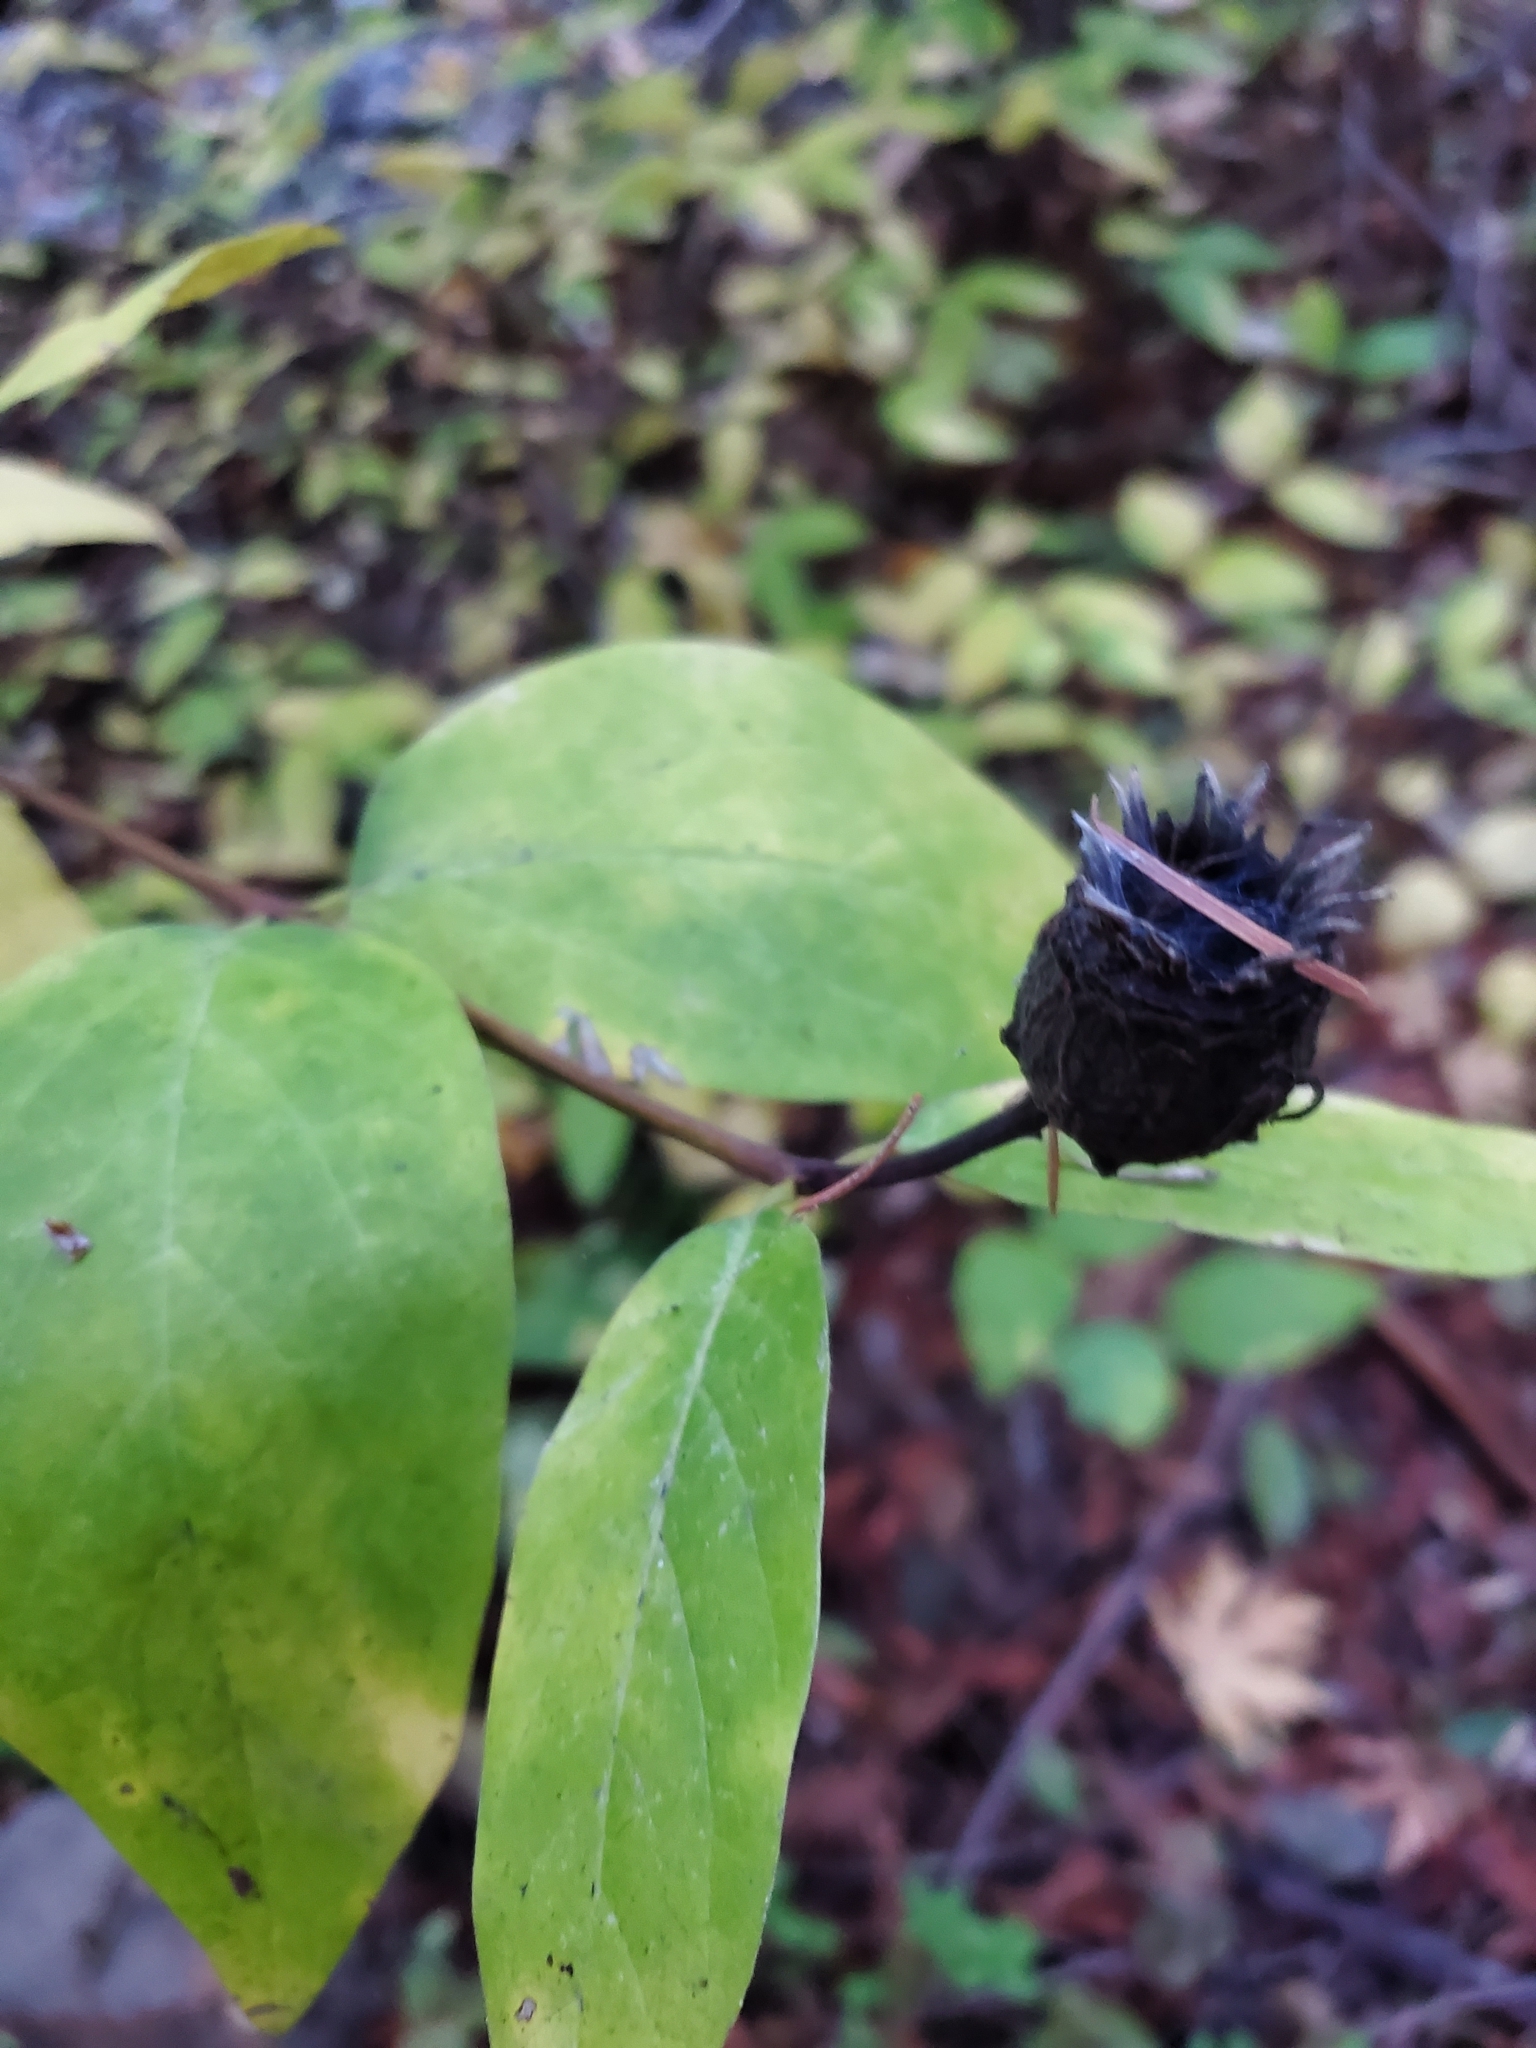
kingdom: Plantae
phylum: Tracheophyta
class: Magnoliopsida
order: Laurales
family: Calycanthaceae
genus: Calycanthus
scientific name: Calycanthus occidentalis
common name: California spicebush
